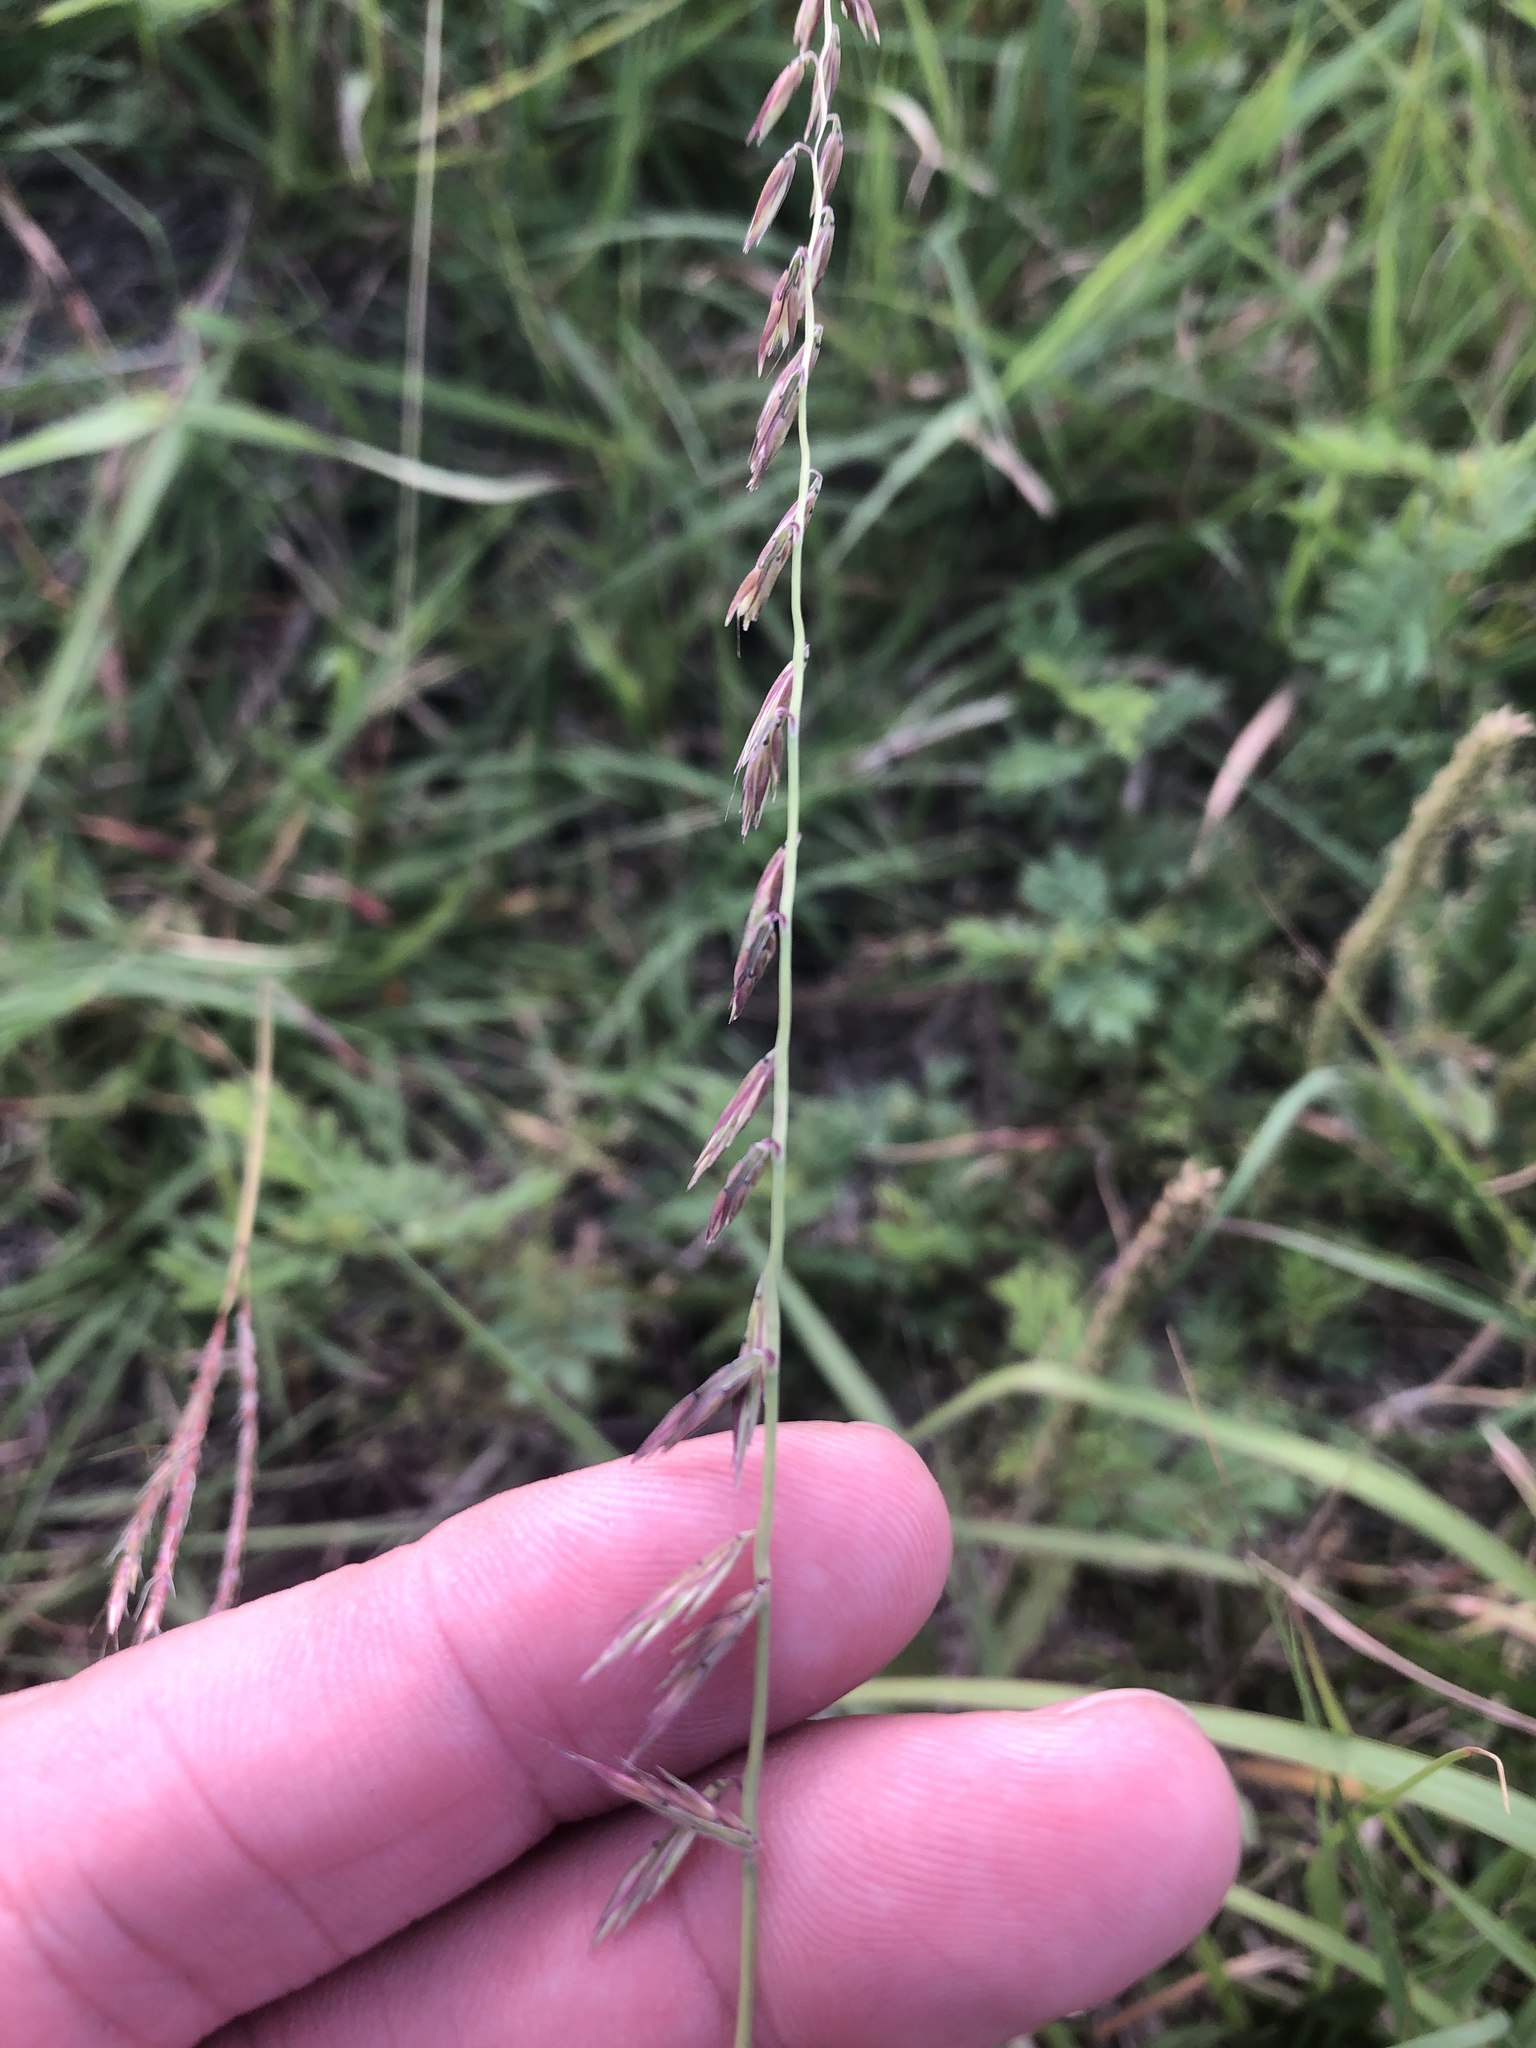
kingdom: Plantae
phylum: Tracheophyta
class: Liliopsida
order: Poales
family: Poaceae
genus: Bouteloua
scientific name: Bouteloua curtipendula
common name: Side-oats grama
